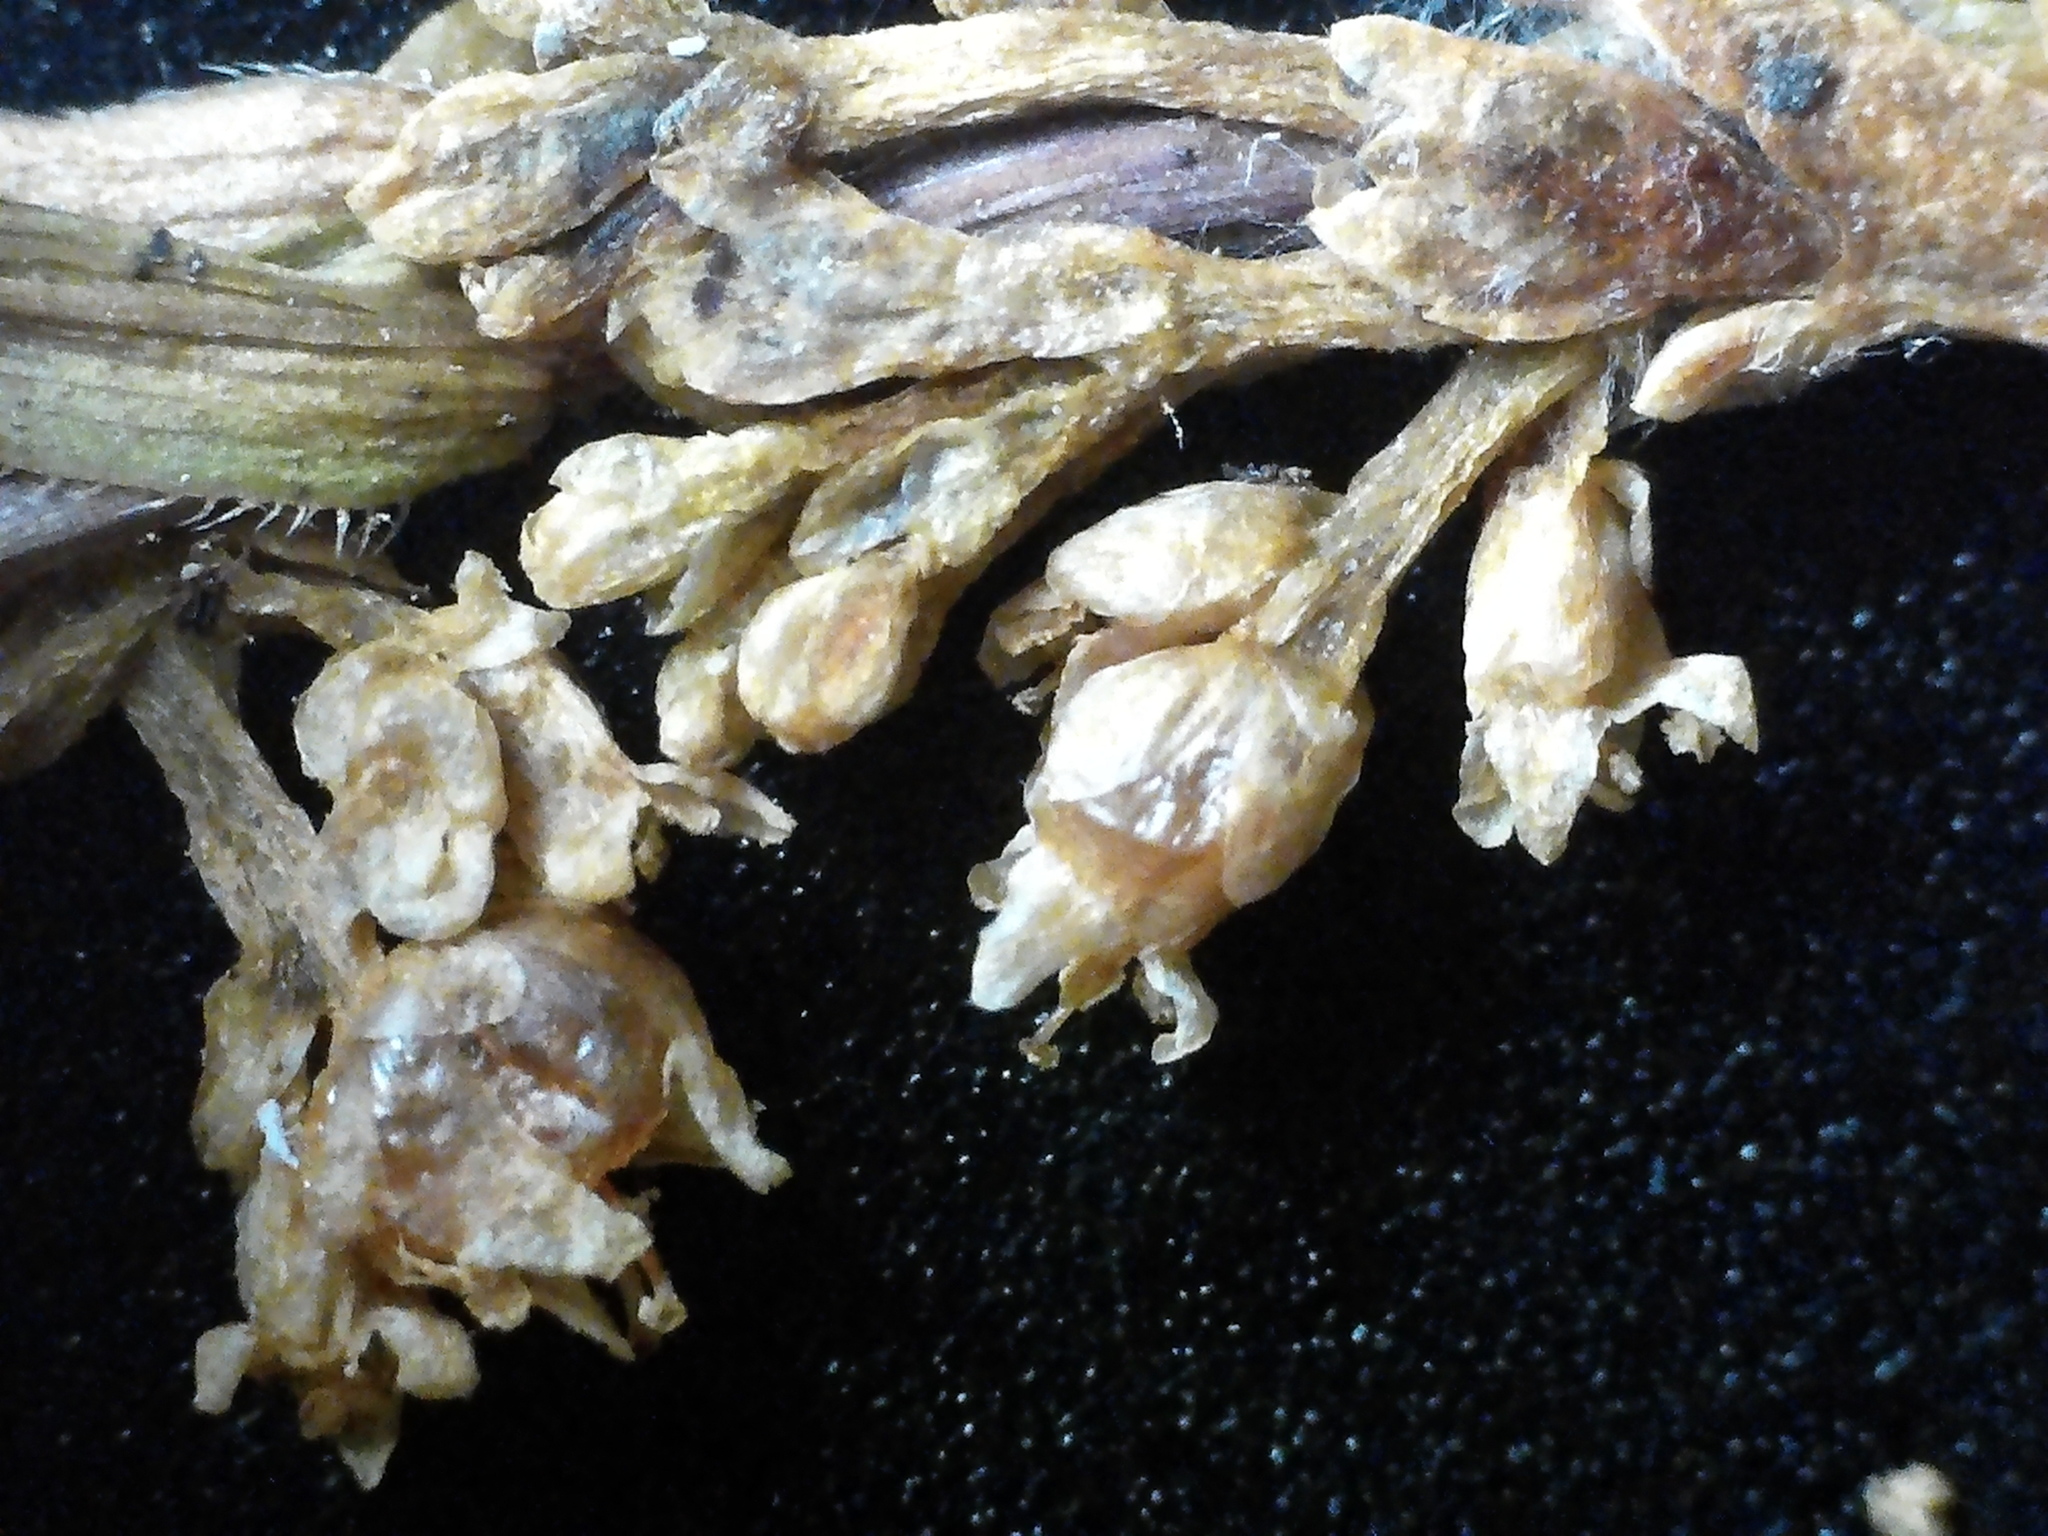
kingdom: Plantae
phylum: Tracheophyta
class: Magnoliopsida
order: Solanales
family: Convolvulaceae
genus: Cuscuta
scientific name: Cuscuta cephalanthi
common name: Button dodder
